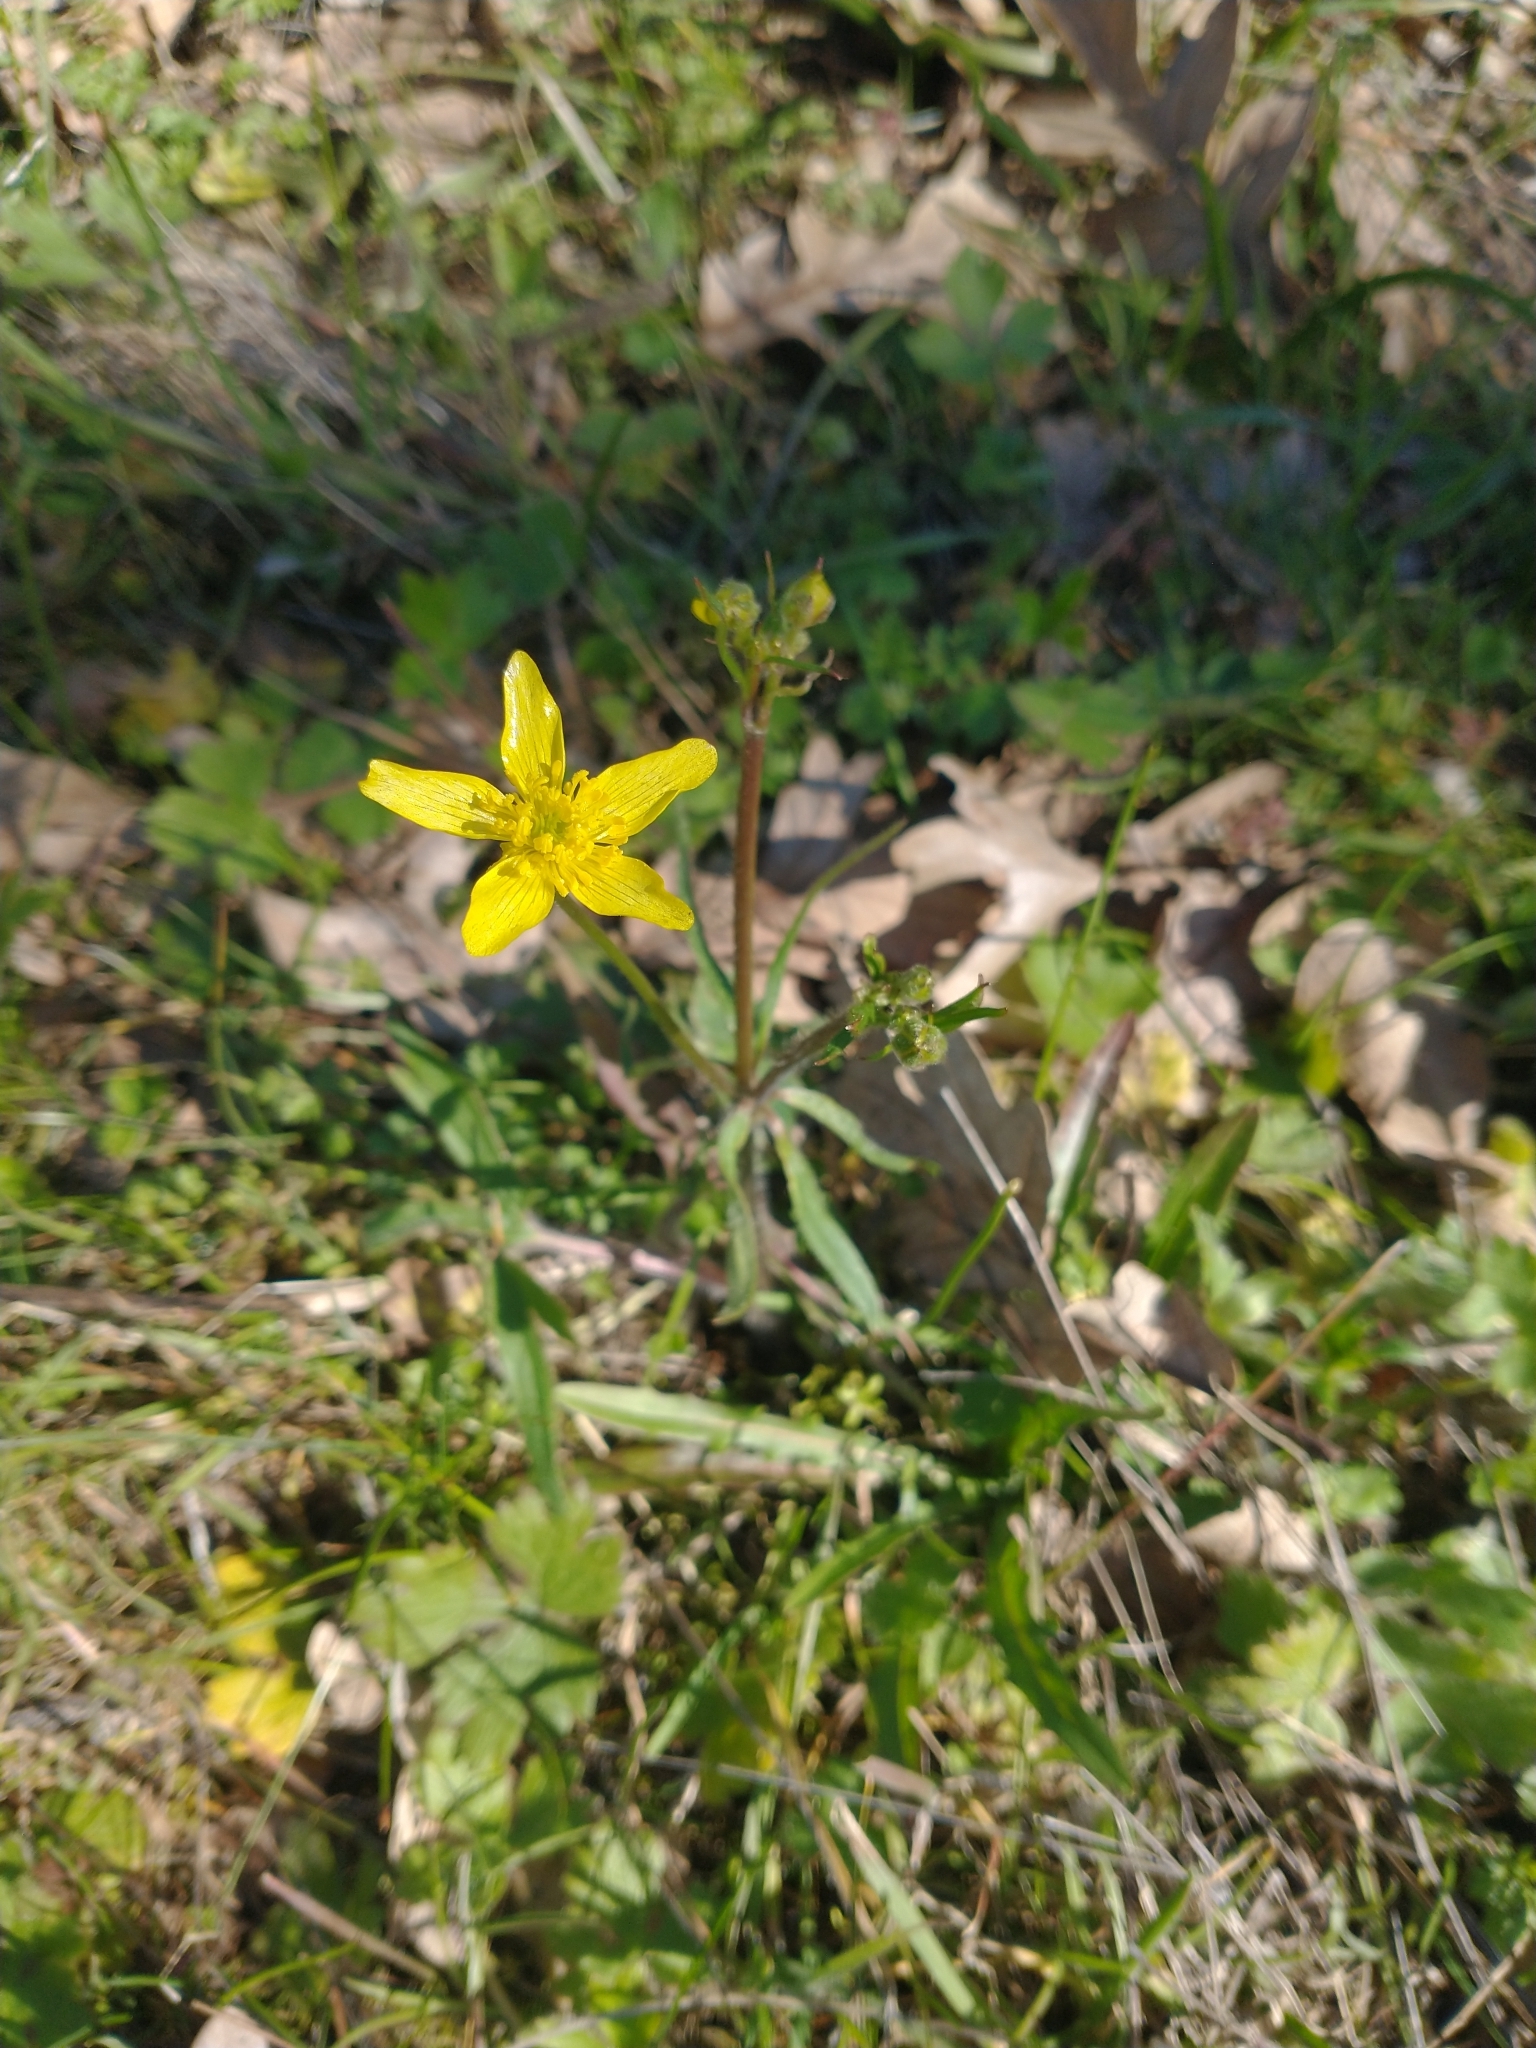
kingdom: Plantae
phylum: Tracheophyta
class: Magnoliopsida
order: Ranunculales
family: Ranunculaceae
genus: Ranunculus
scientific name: Ranunculus occidentalis
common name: Western buttercup
